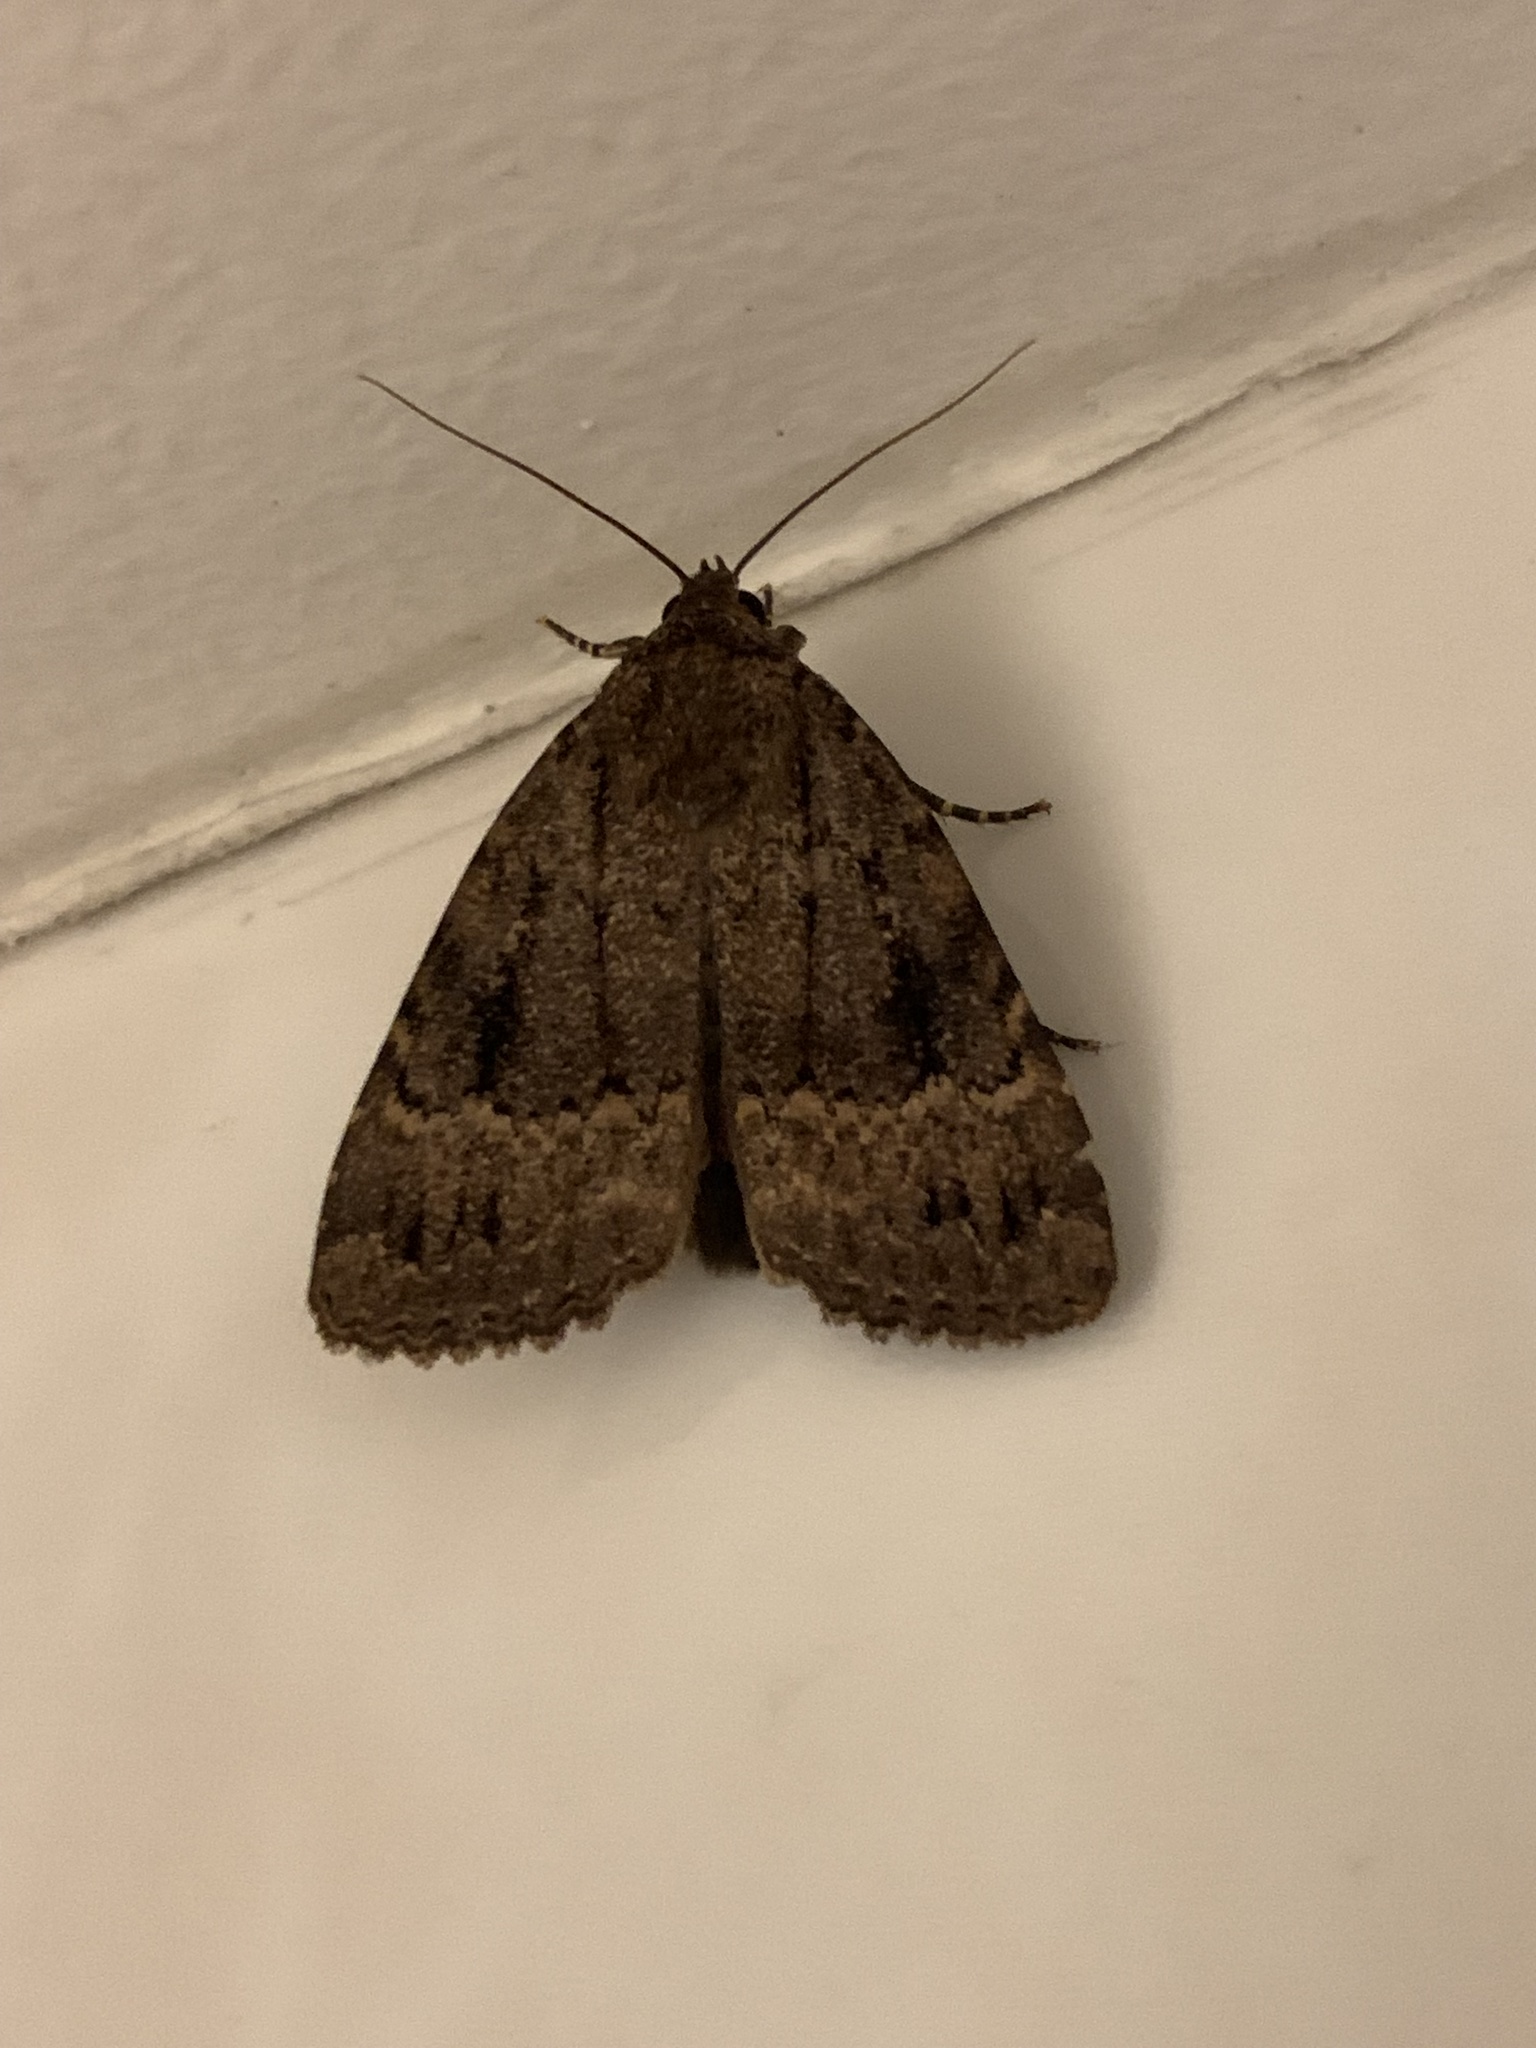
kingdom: Animalia
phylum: Arthropoda
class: Insecta
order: Lepidoptera
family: Noctuidae
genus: Amphipyra
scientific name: Amphipyra pyramidea
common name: Copper underwing
